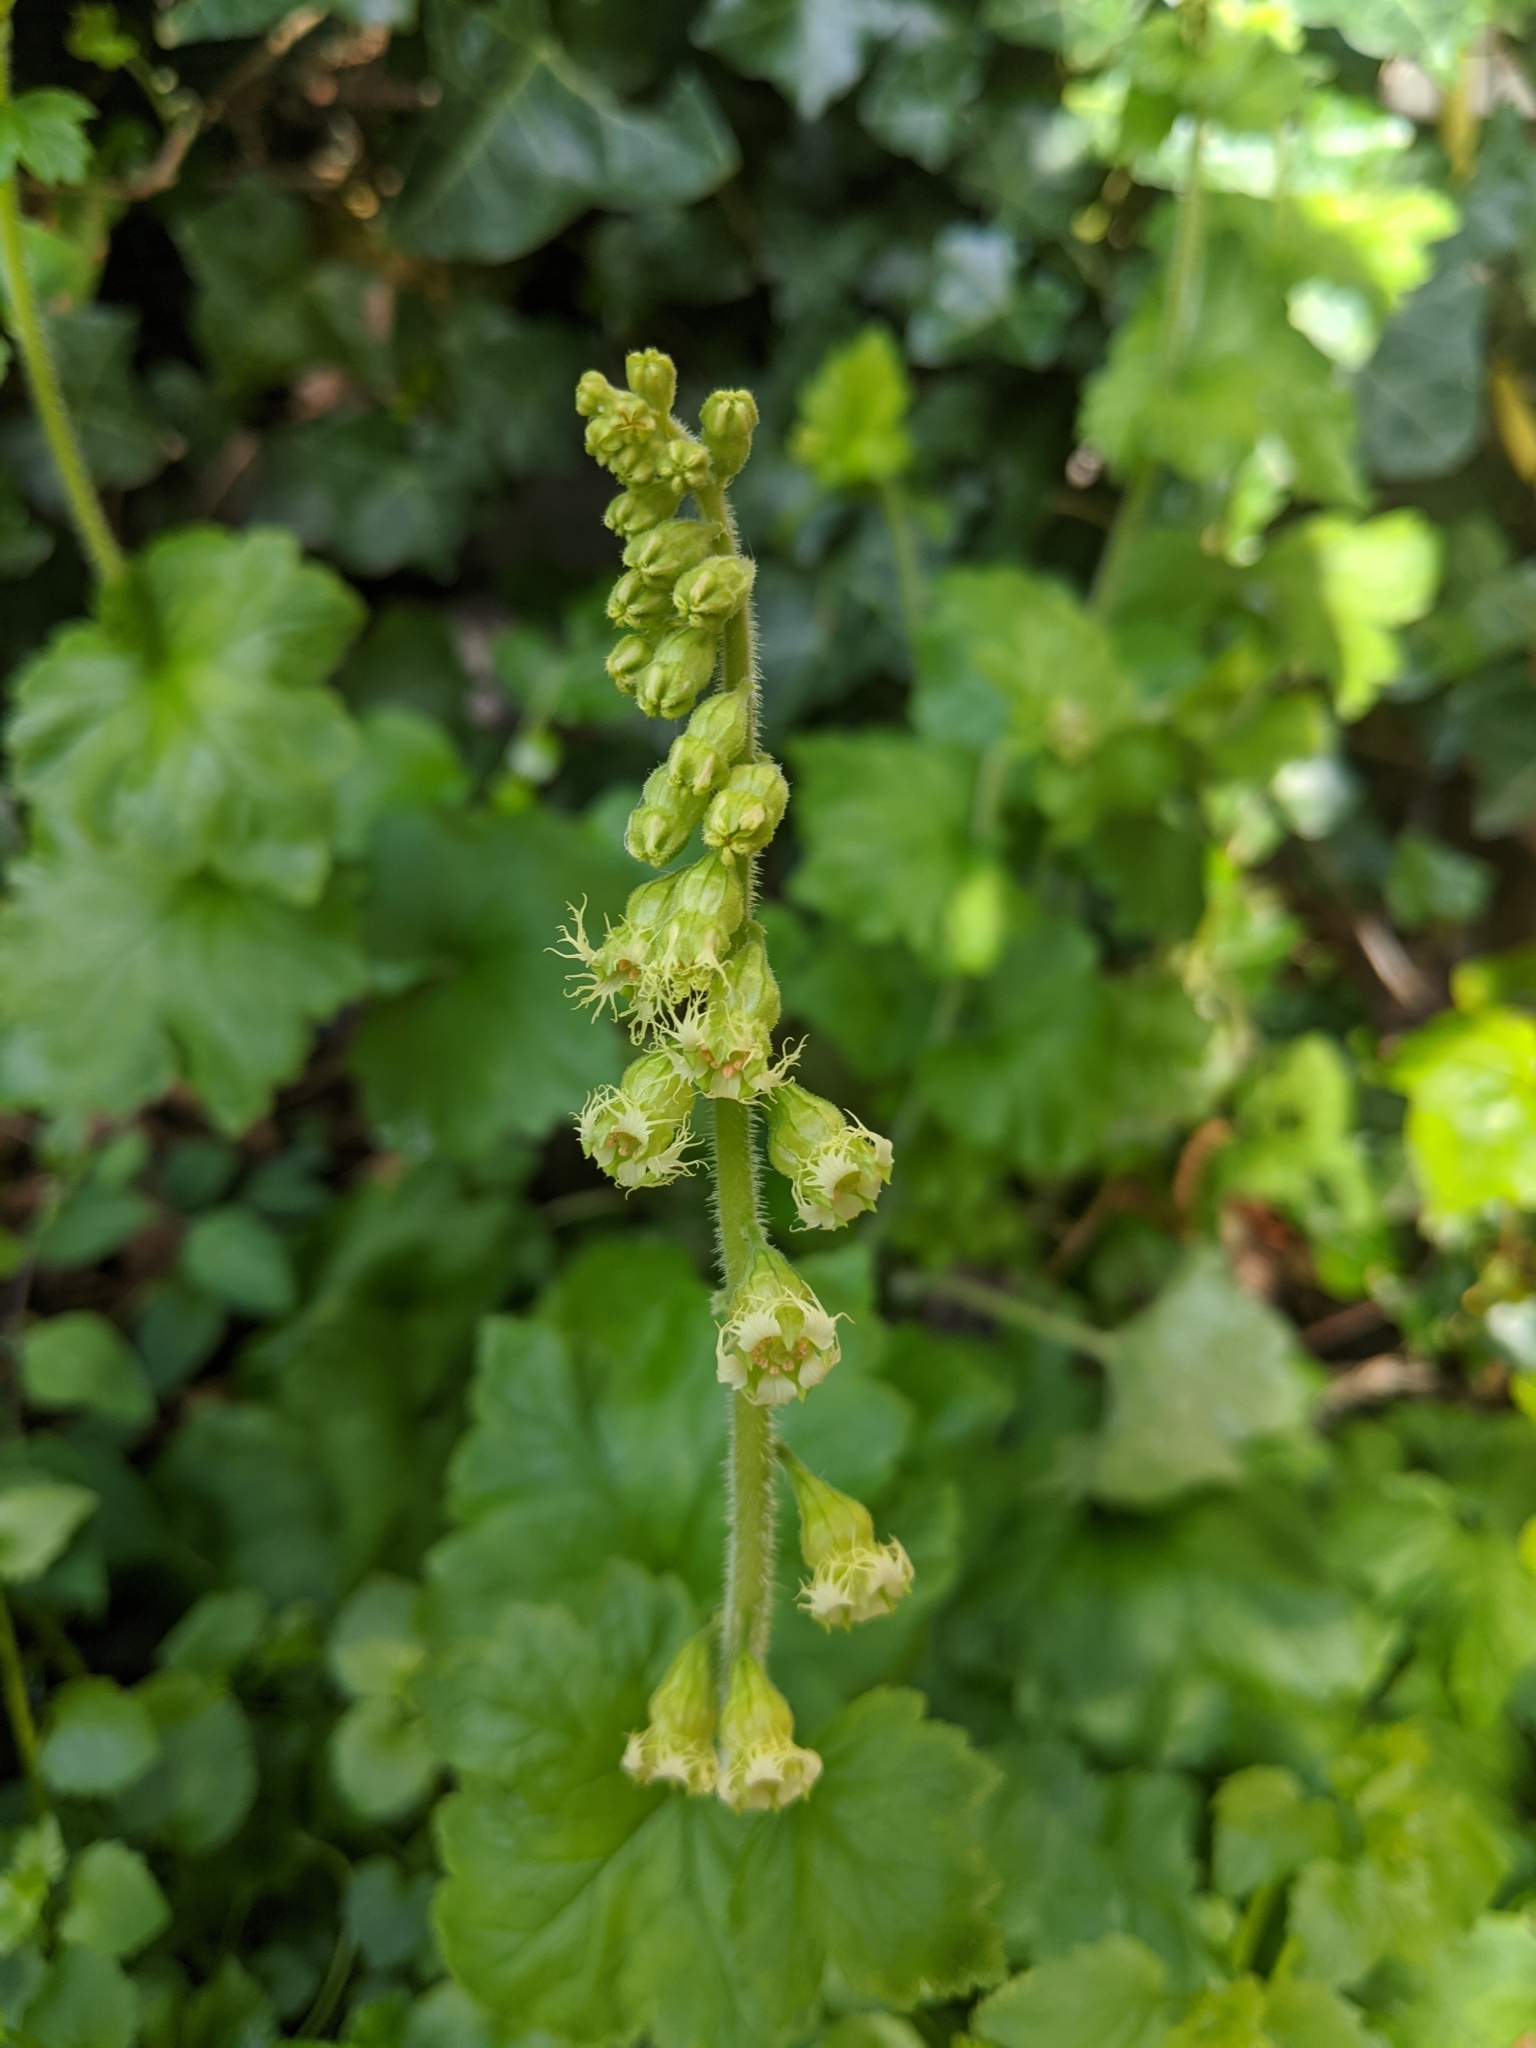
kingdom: Plantae
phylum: Tracheophyta
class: Magnoliopsida
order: Saxifragales
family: Saxifragaceae
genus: Tellima
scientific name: Tellima grandiflora
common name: Fringecups
